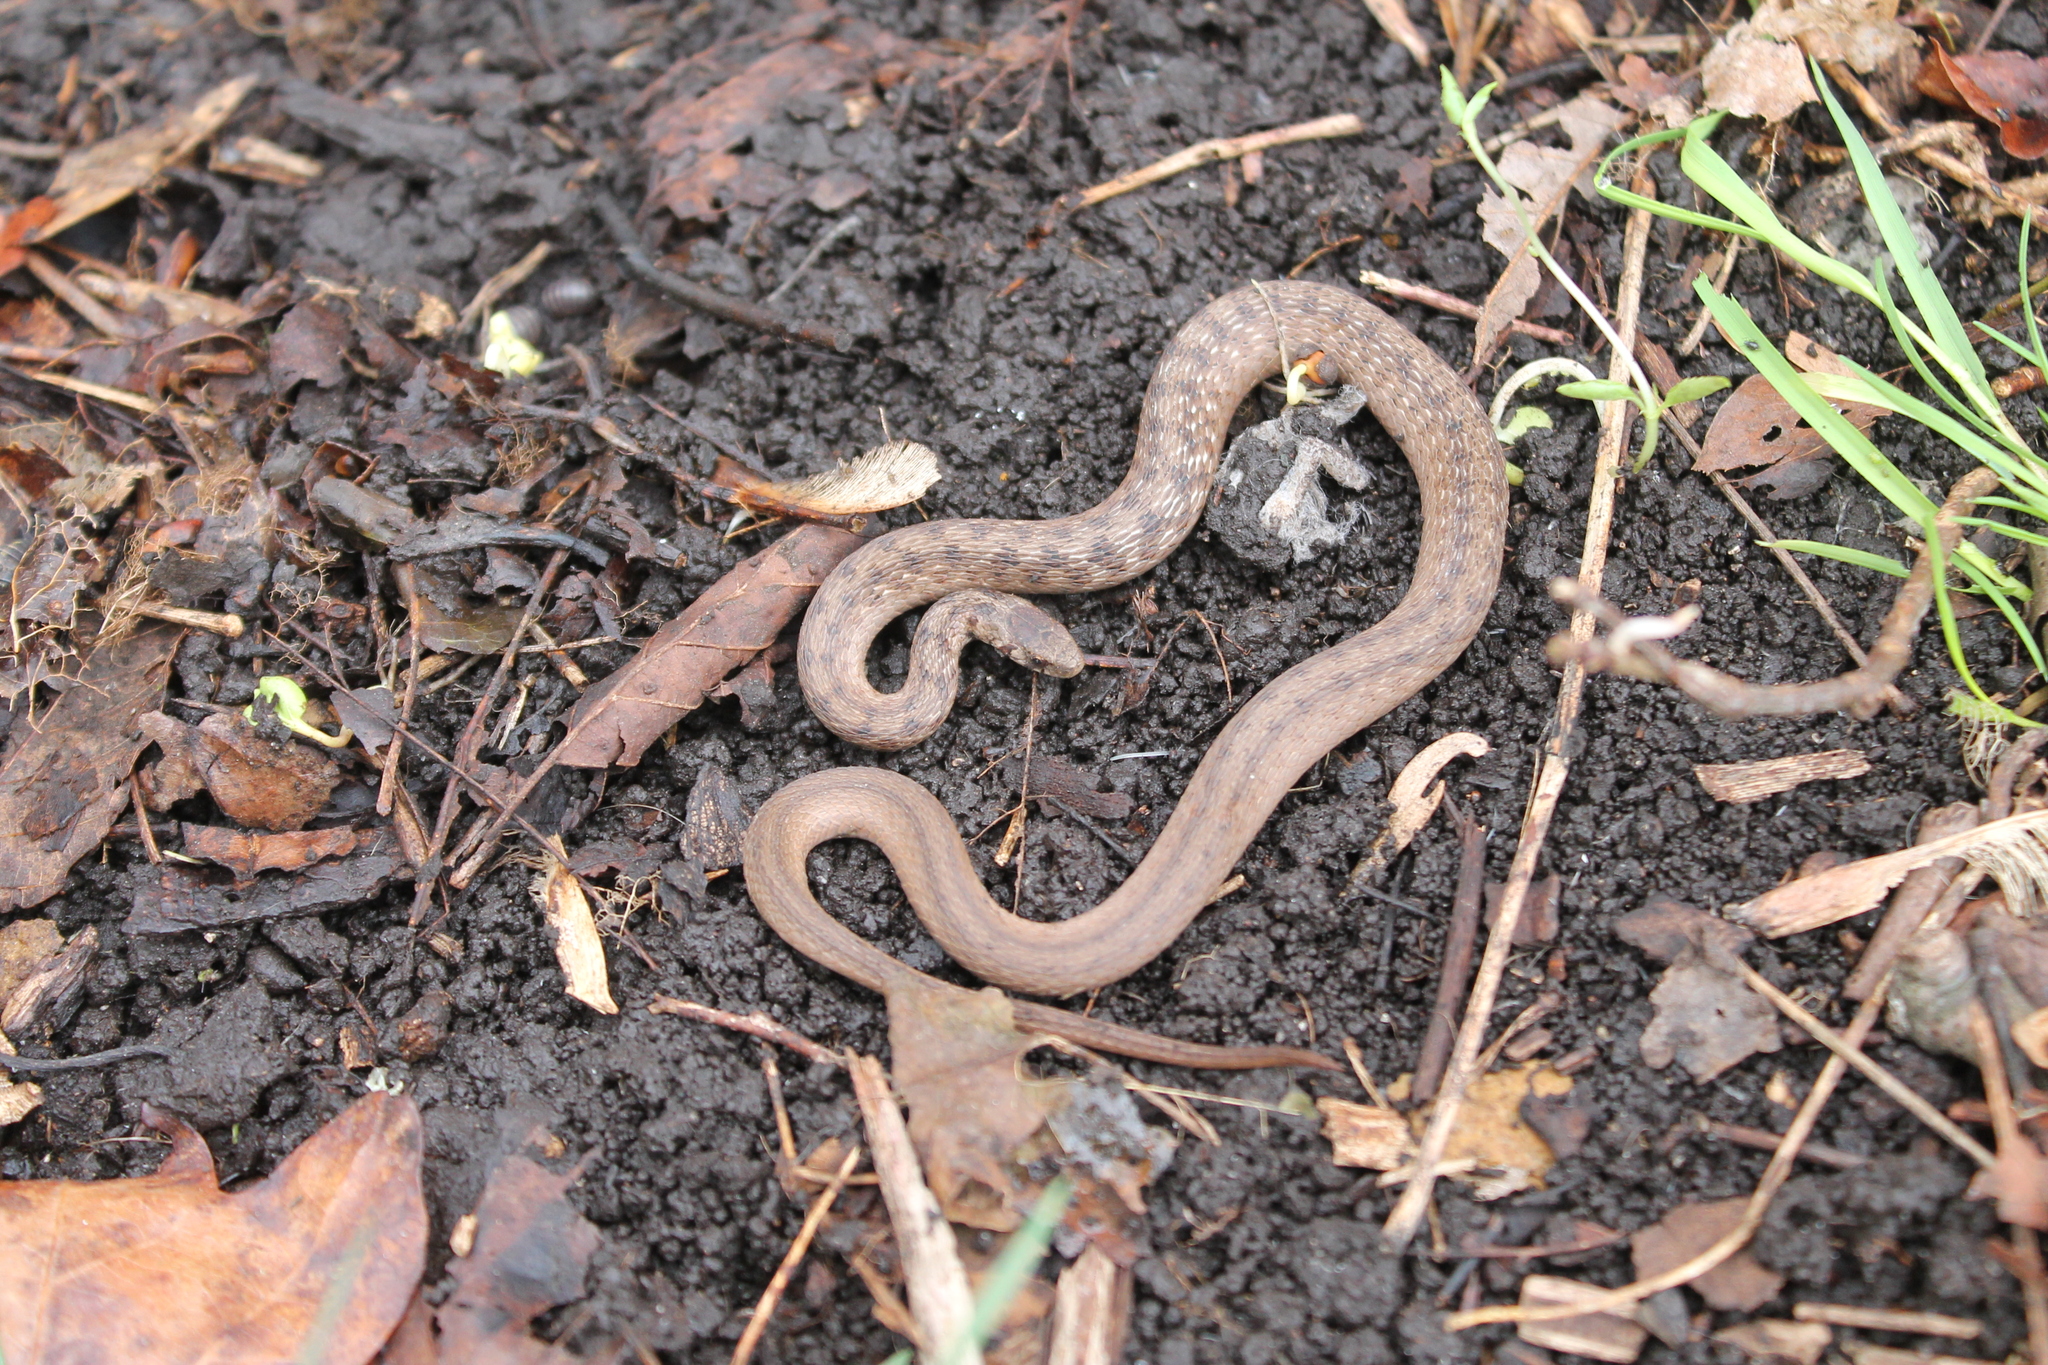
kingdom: Animalia
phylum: Chordata
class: Squamata
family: Colubridae
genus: Storeria
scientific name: Storeria dekayi
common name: (dekay’s) brown snake
